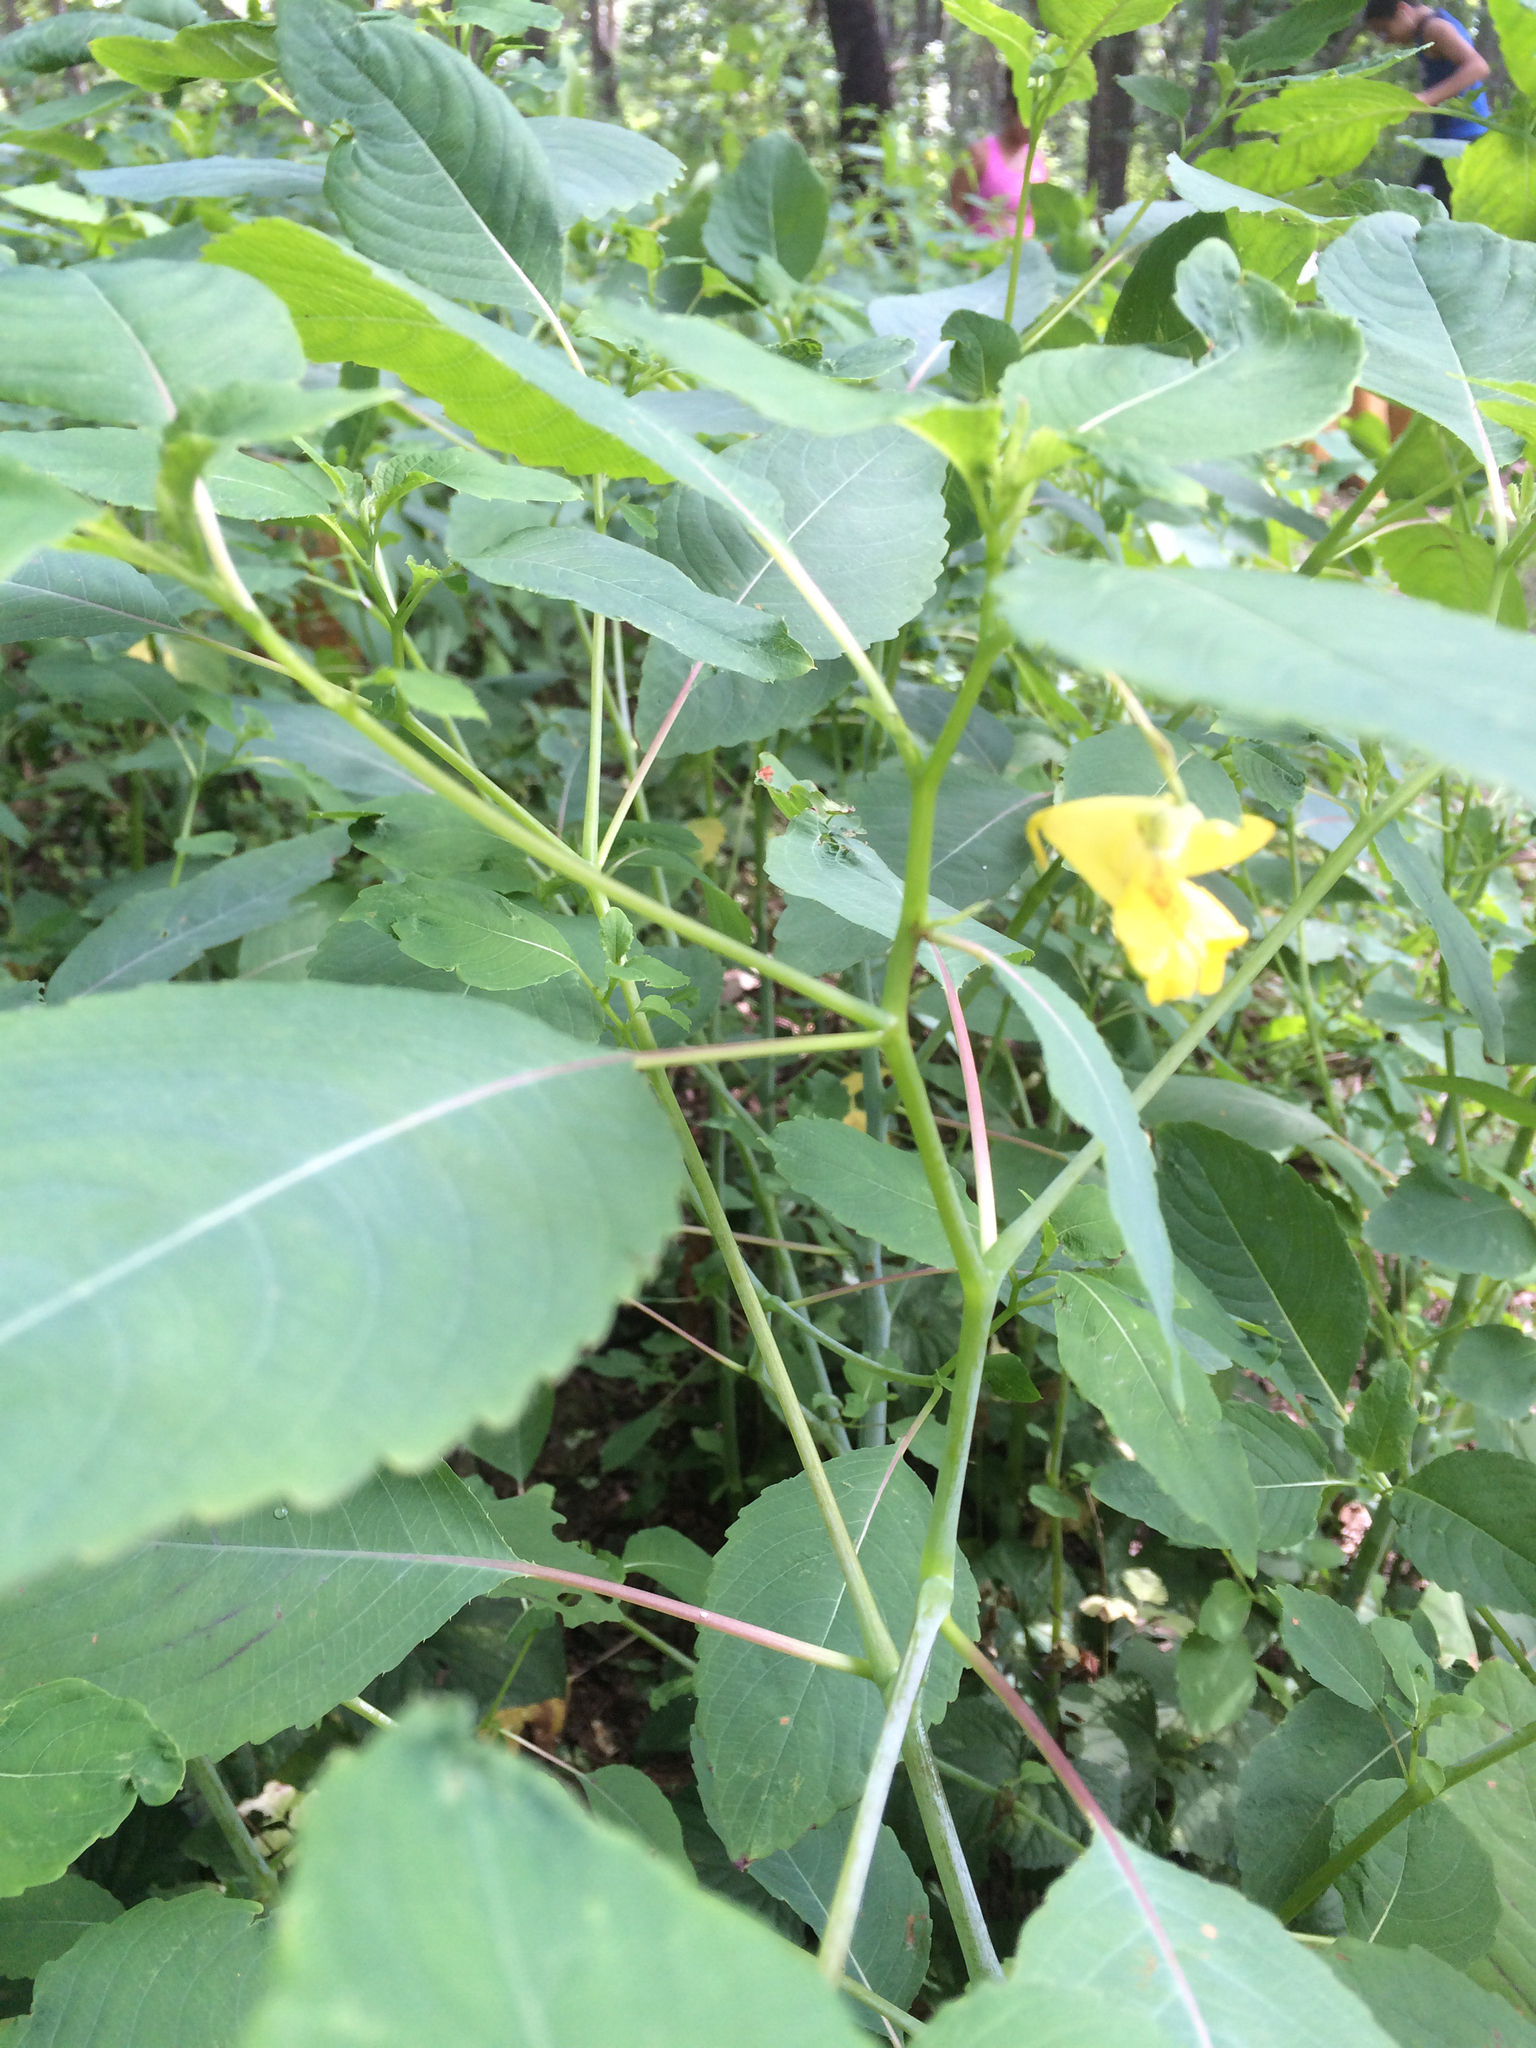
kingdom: Plantae
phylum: Tracheophyta
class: Magnoliopsida
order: Ericales
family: Balsaminaceae
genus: Impatiens
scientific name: Impatiens pallida
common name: Pale snapweed
